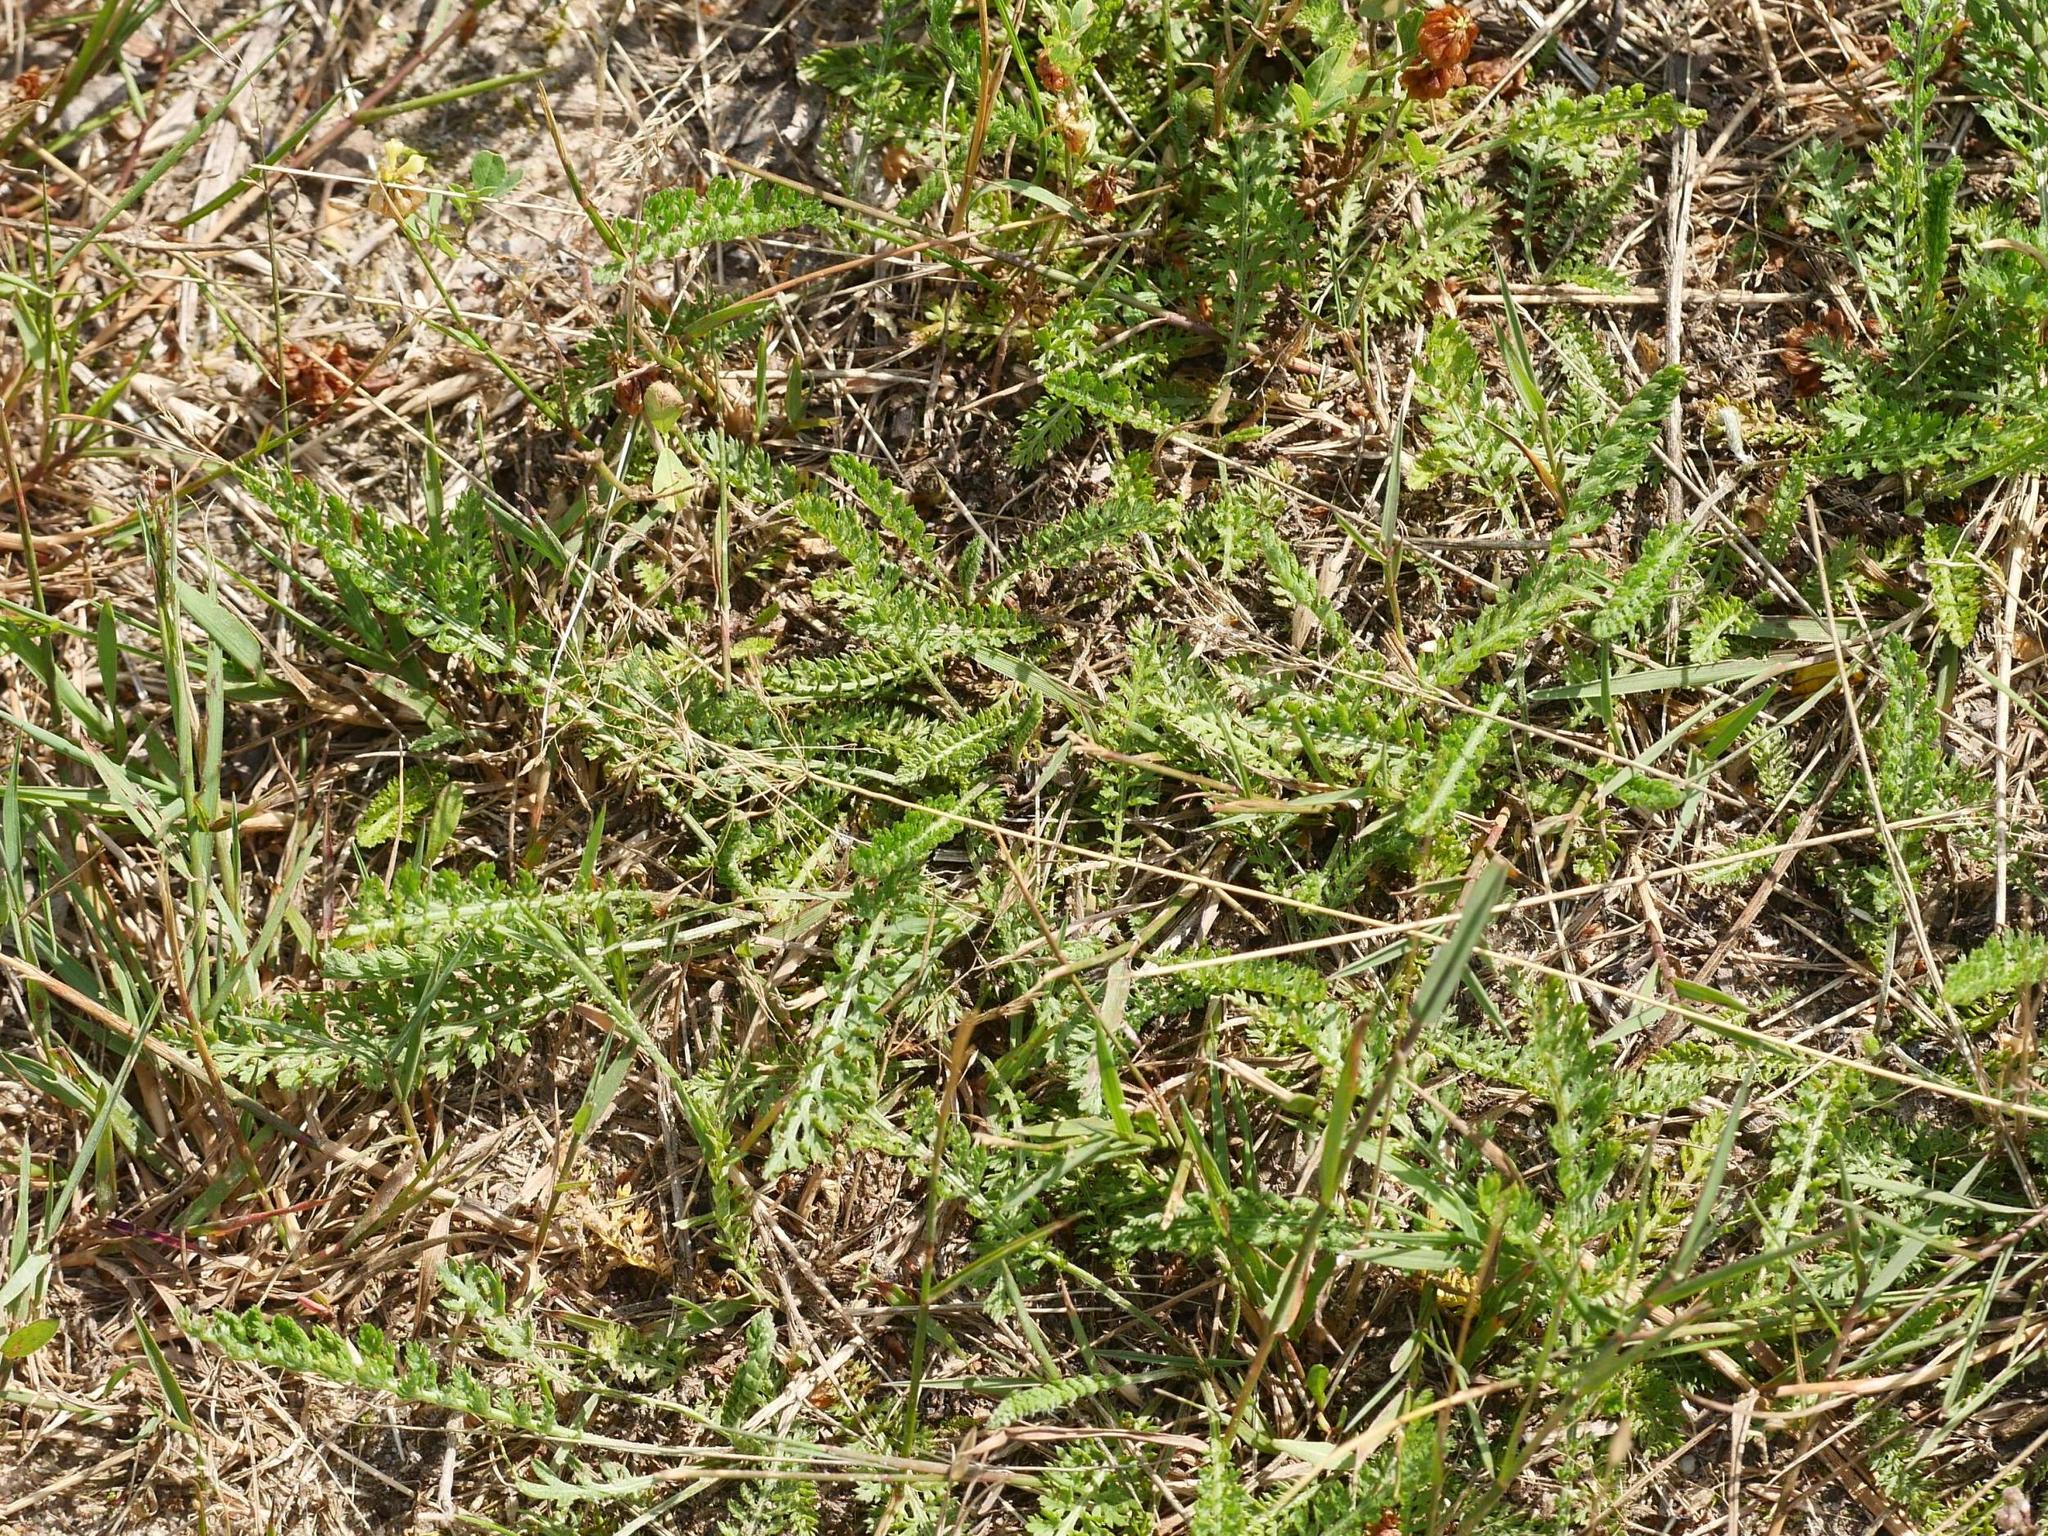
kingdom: Plantae
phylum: Tracheophyta
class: Magnoliopsida
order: Asterales
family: Asteraceae
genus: Achillea
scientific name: Achillea millefolium
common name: Yarrow
